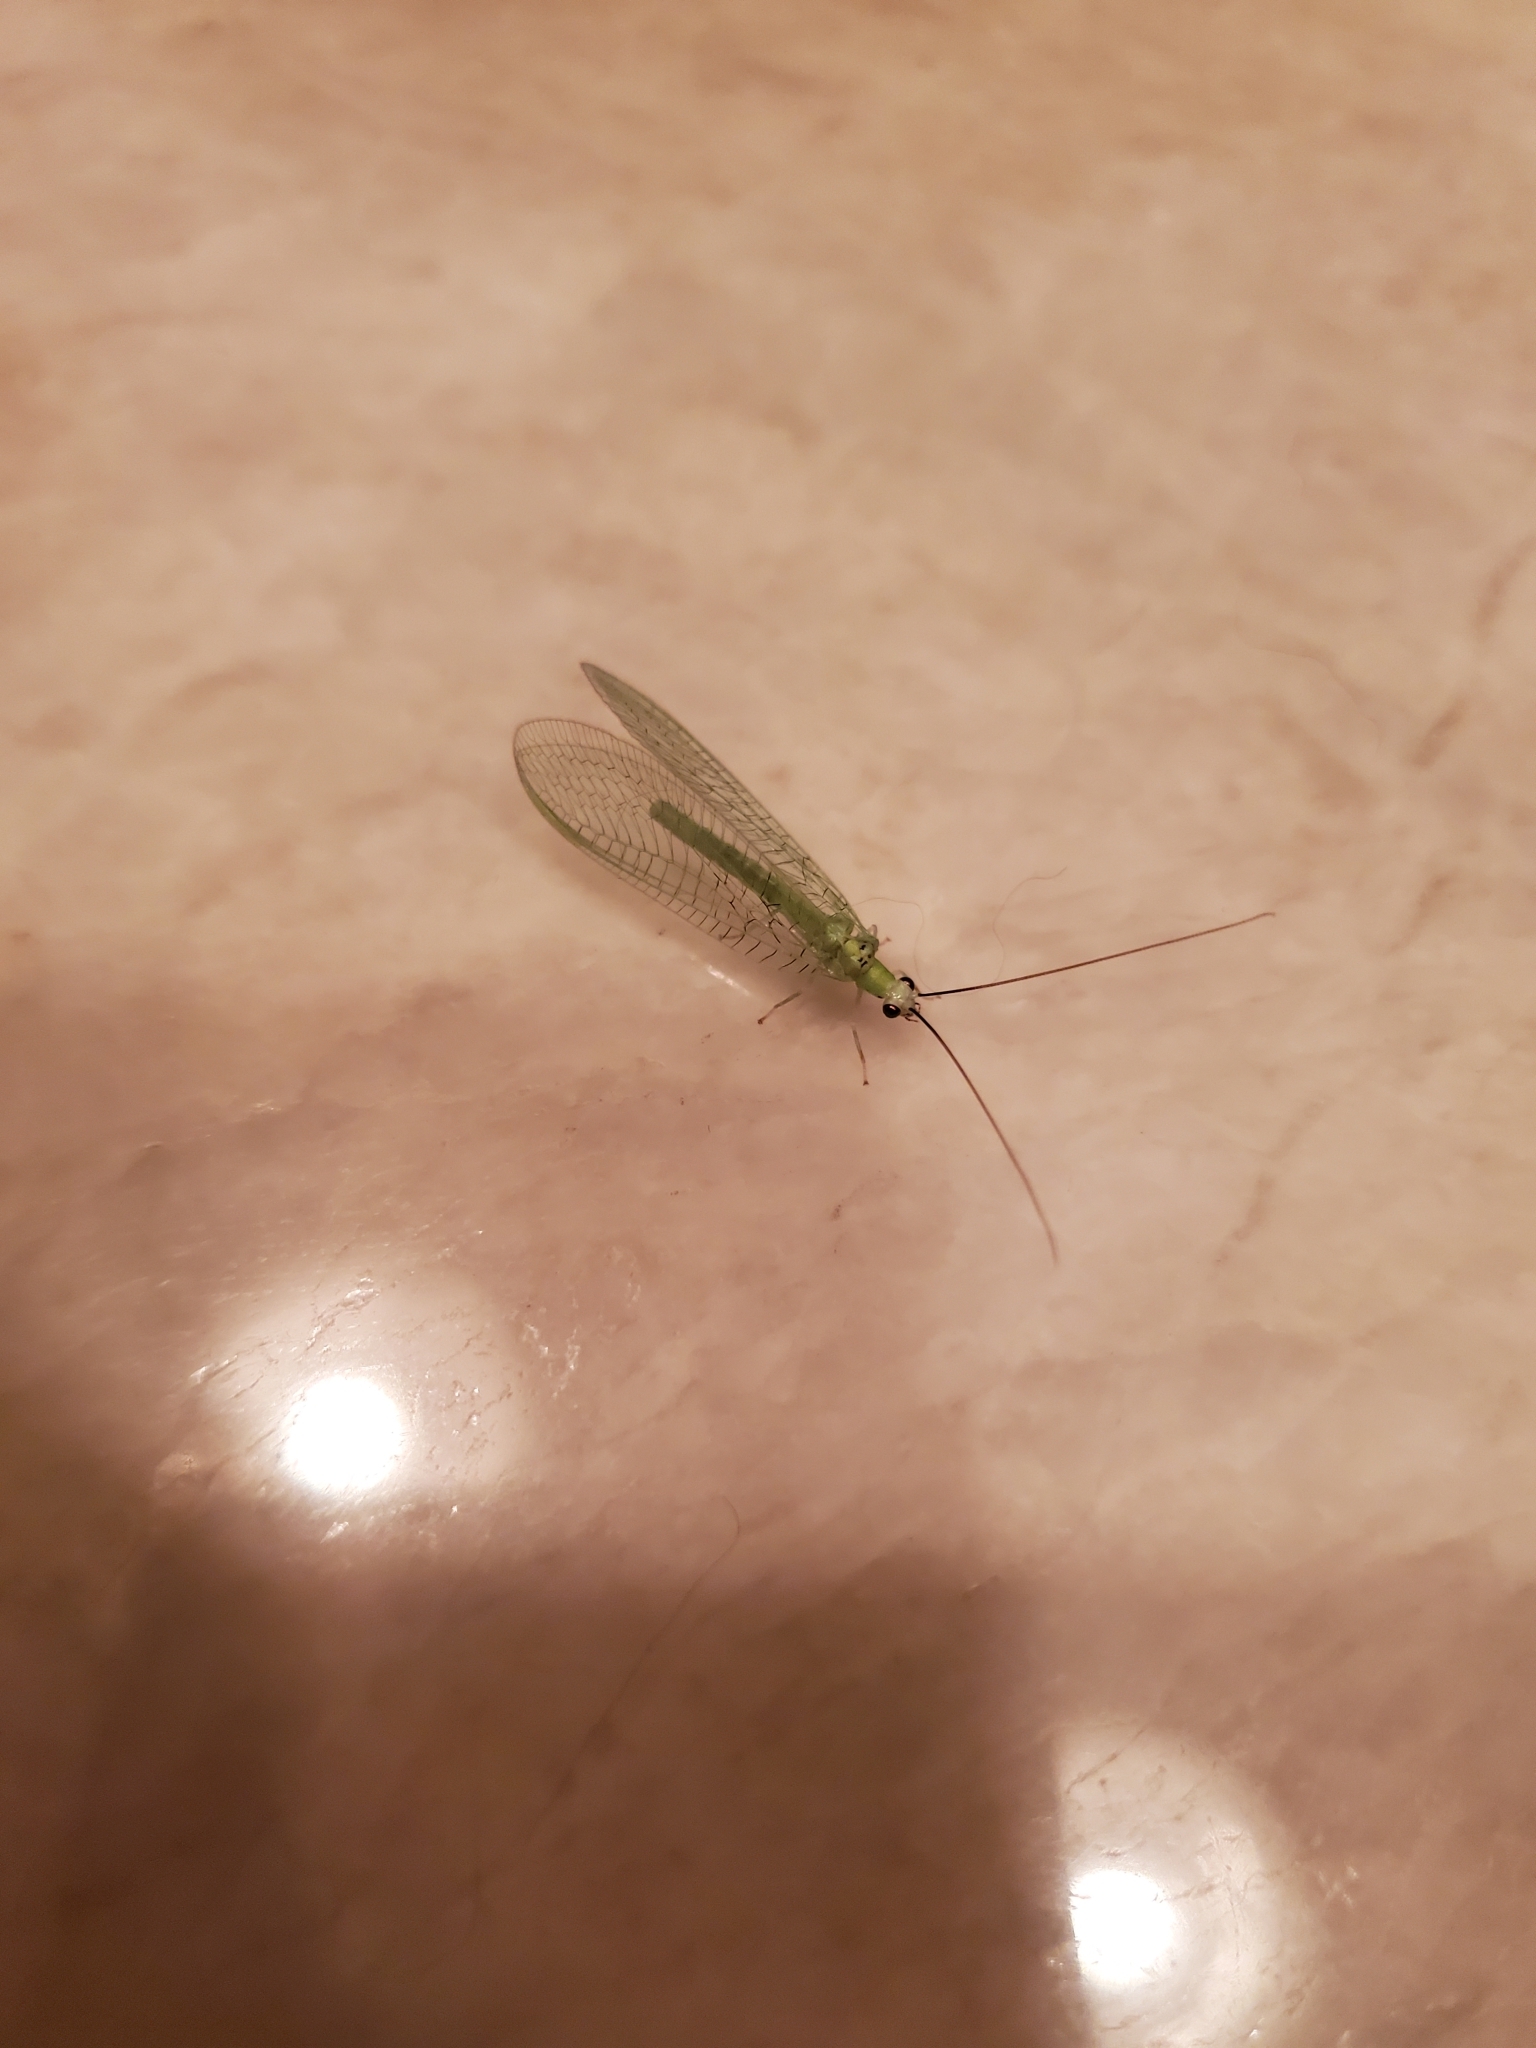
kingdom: Animalia
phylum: Arthropoda
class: Insecta
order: Neuroptera
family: Chrysopidae
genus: Chrysopa
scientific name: Chrysopa nigricornis
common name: Black-horned green lacewing
